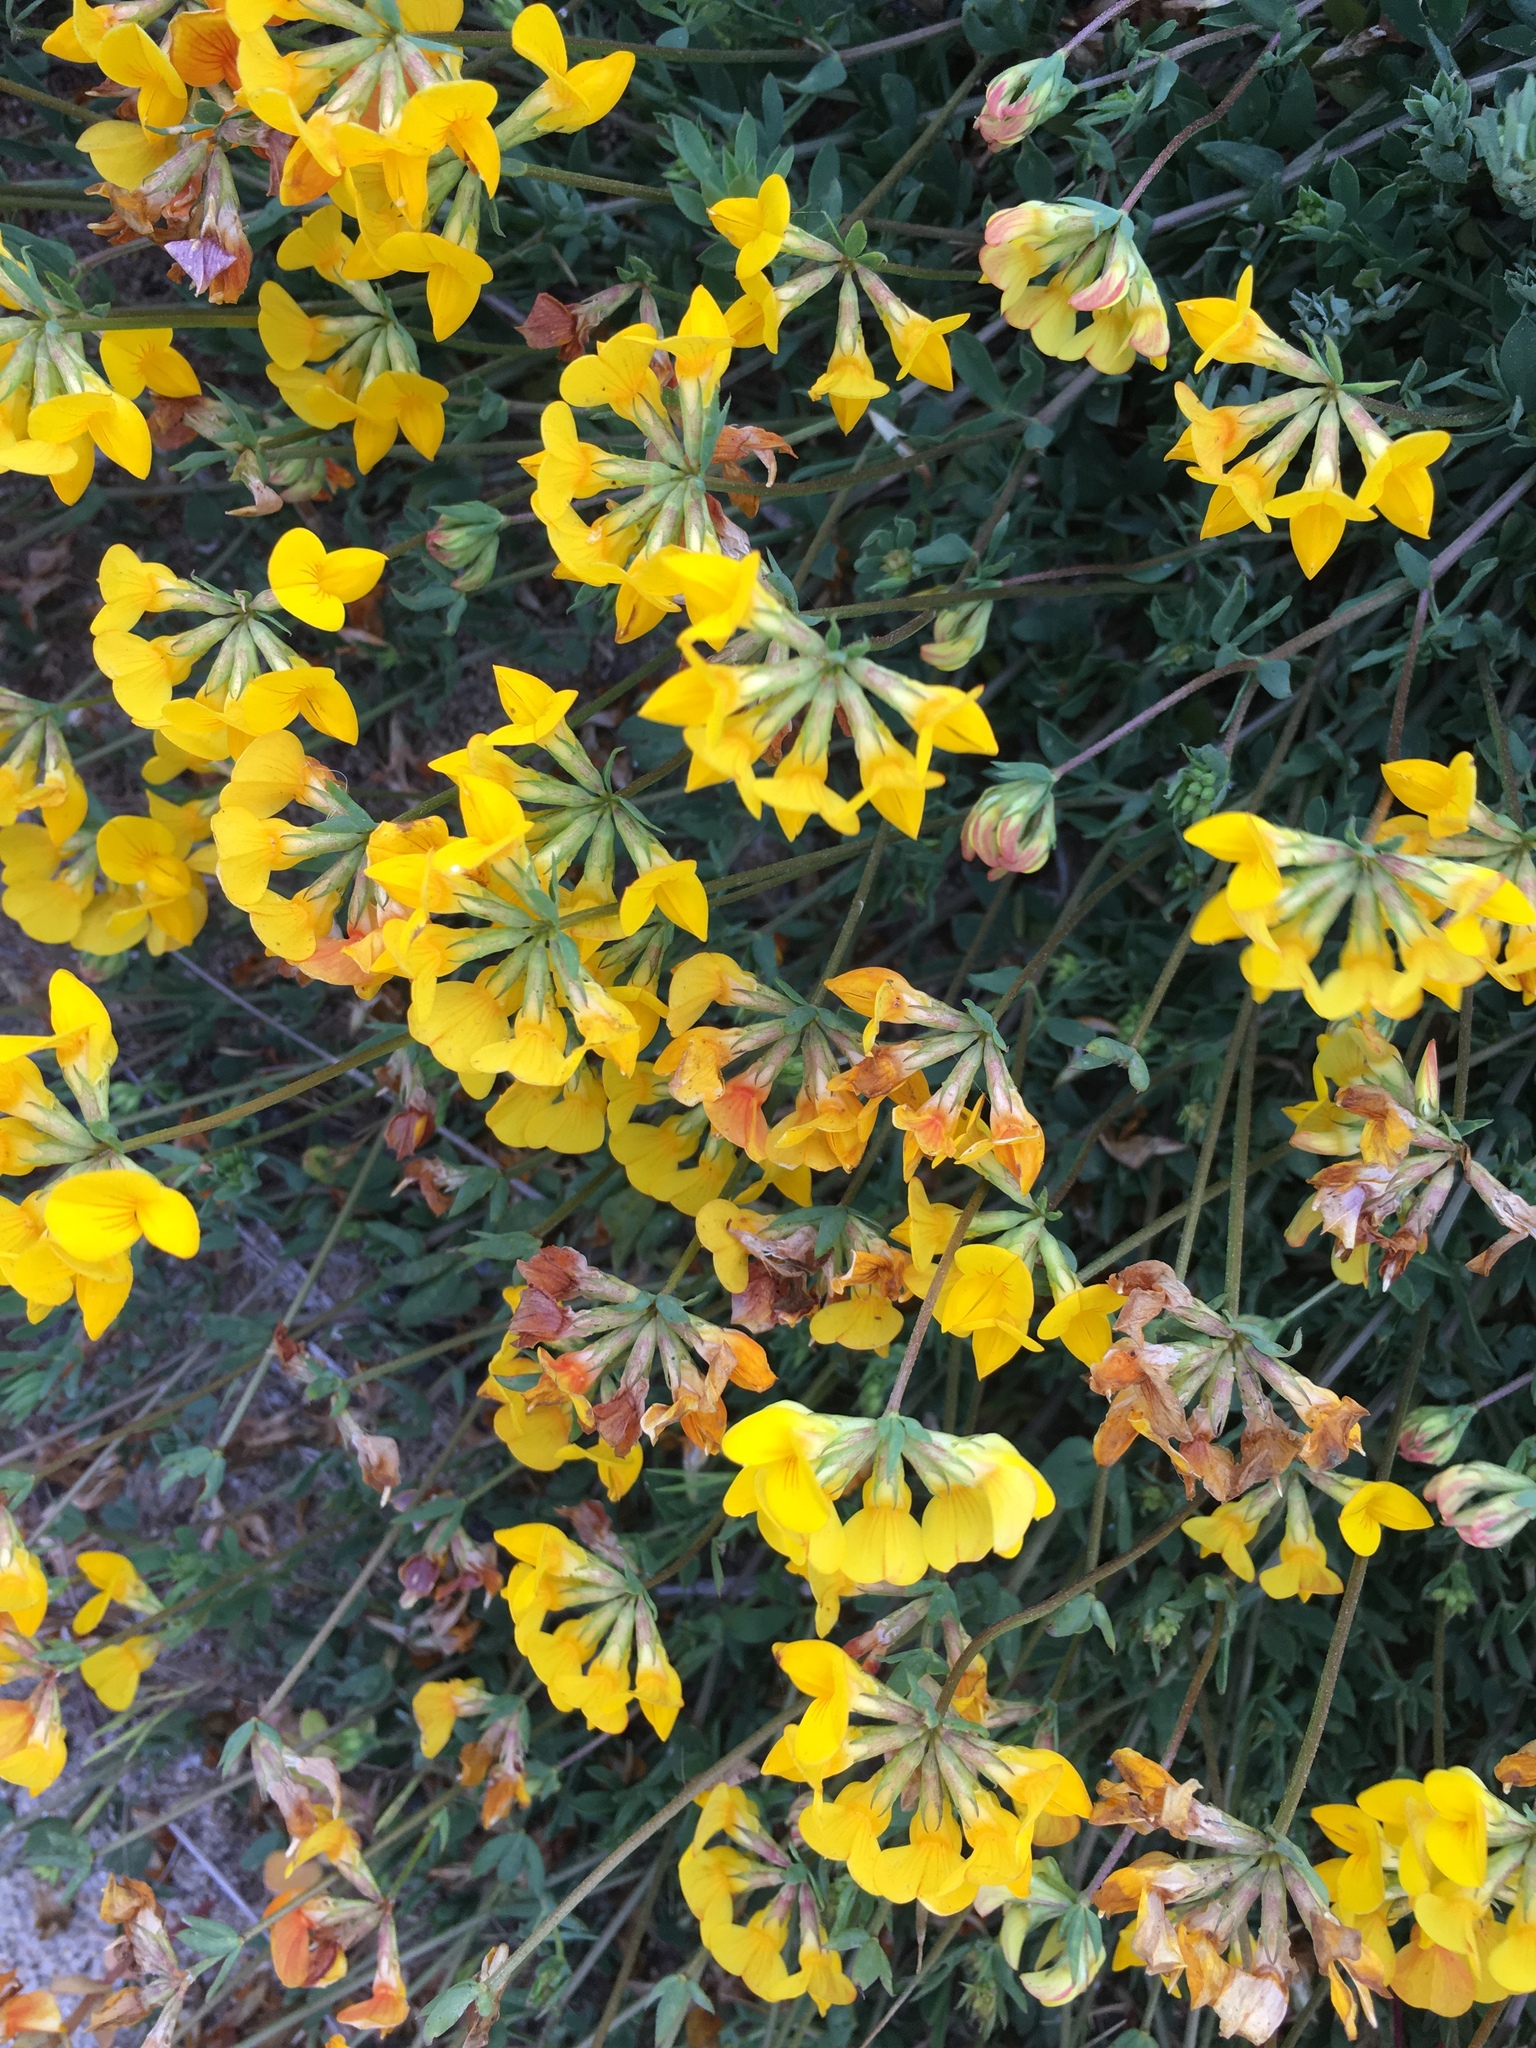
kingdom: Plantae
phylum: Tracheophyta
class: Magnoliopsida
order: Fabales
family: Fabaceae
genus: Lotus
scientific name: Lotus corniculatus
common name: Common bird's-foot-trefoil
